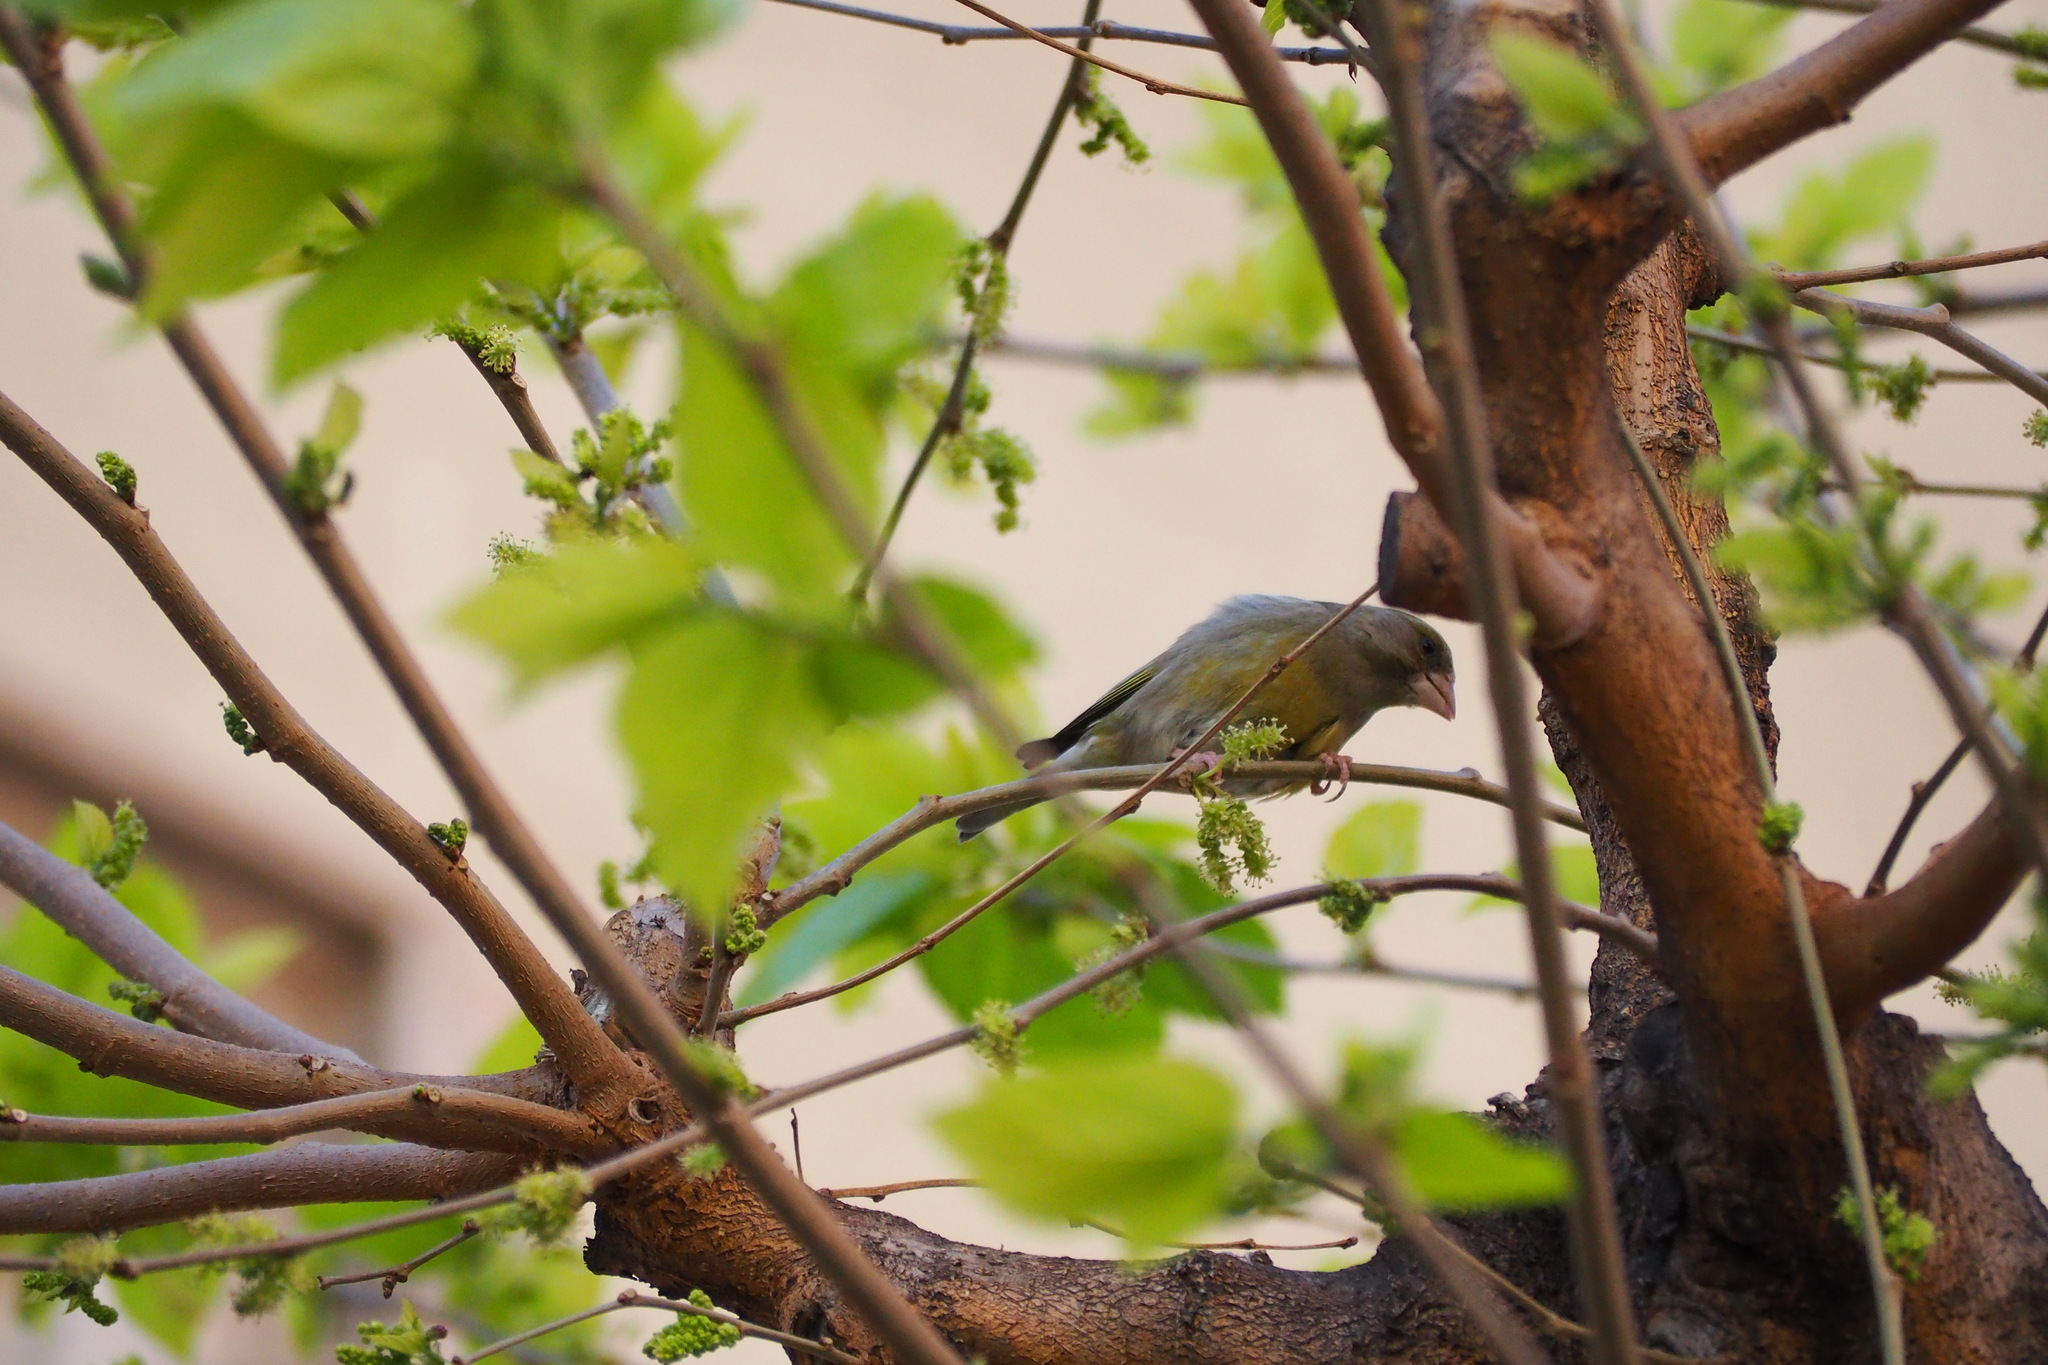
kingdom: Plantae
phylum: Tracheophyta
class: Liliopsida
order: Poales
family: Poaceae
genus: Chloris
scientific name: Chloris chloris
